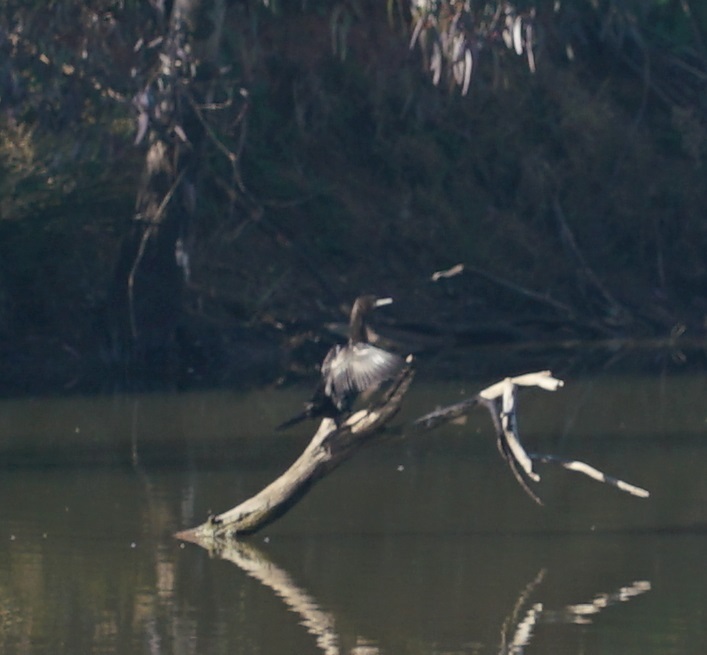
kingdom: Animalia
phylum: Chordata
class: Aves
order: Suliformes
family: Phalacrocoracidae
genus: Phalacrocorax
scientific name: Phalacrocorax sulcirostris
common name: Little black cormorant
